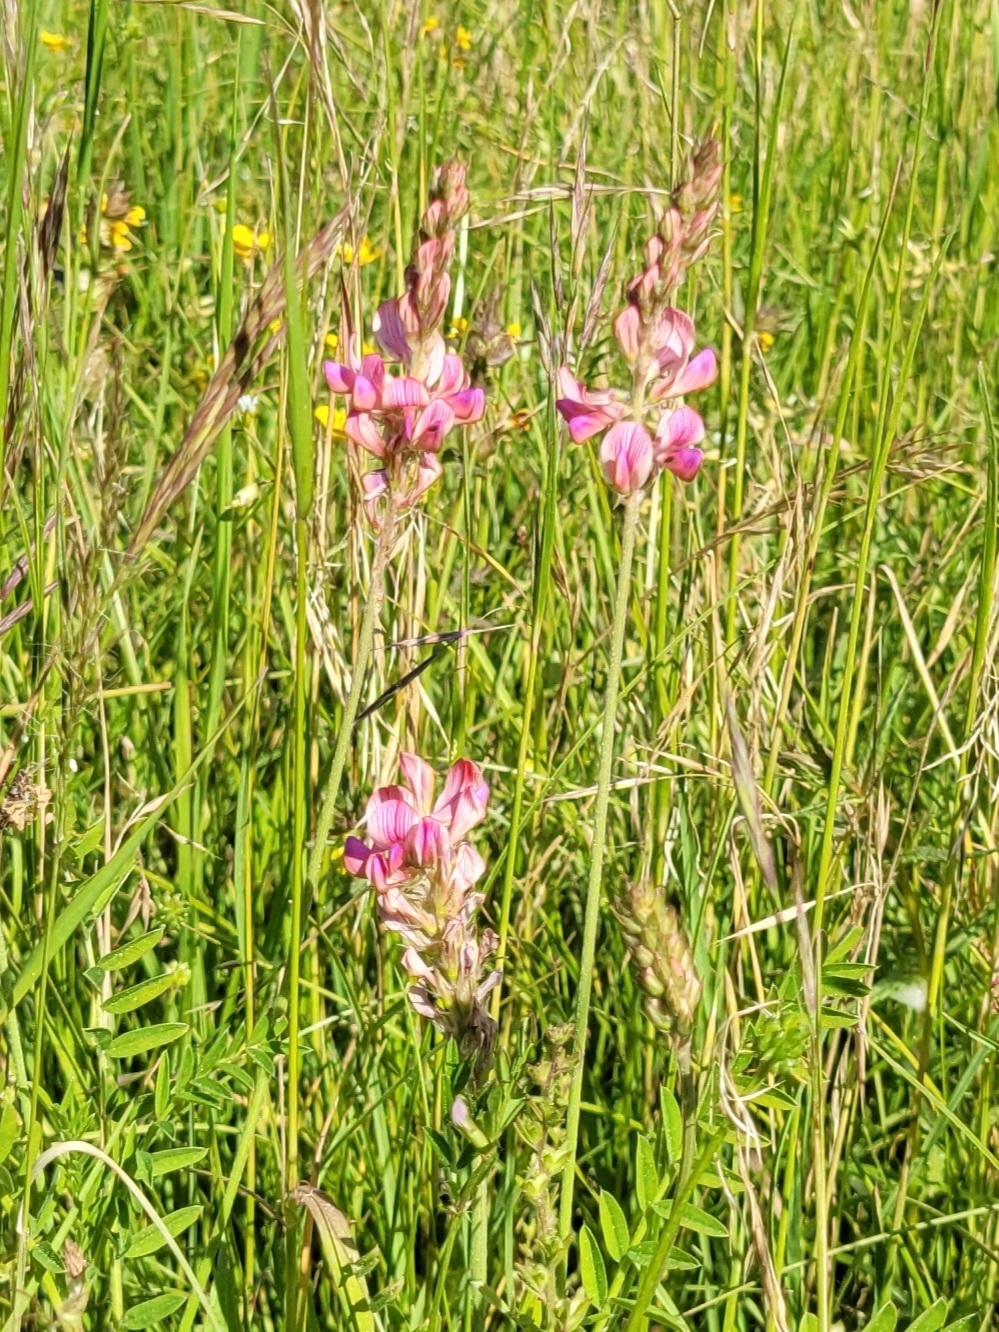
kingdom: Plantae
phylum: Tracheophyta
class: Magnoliopsida
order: Fabales
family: Fabaceae
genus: Onobrychis
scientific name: Onobrychis viciifolia
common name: Sainfoin
